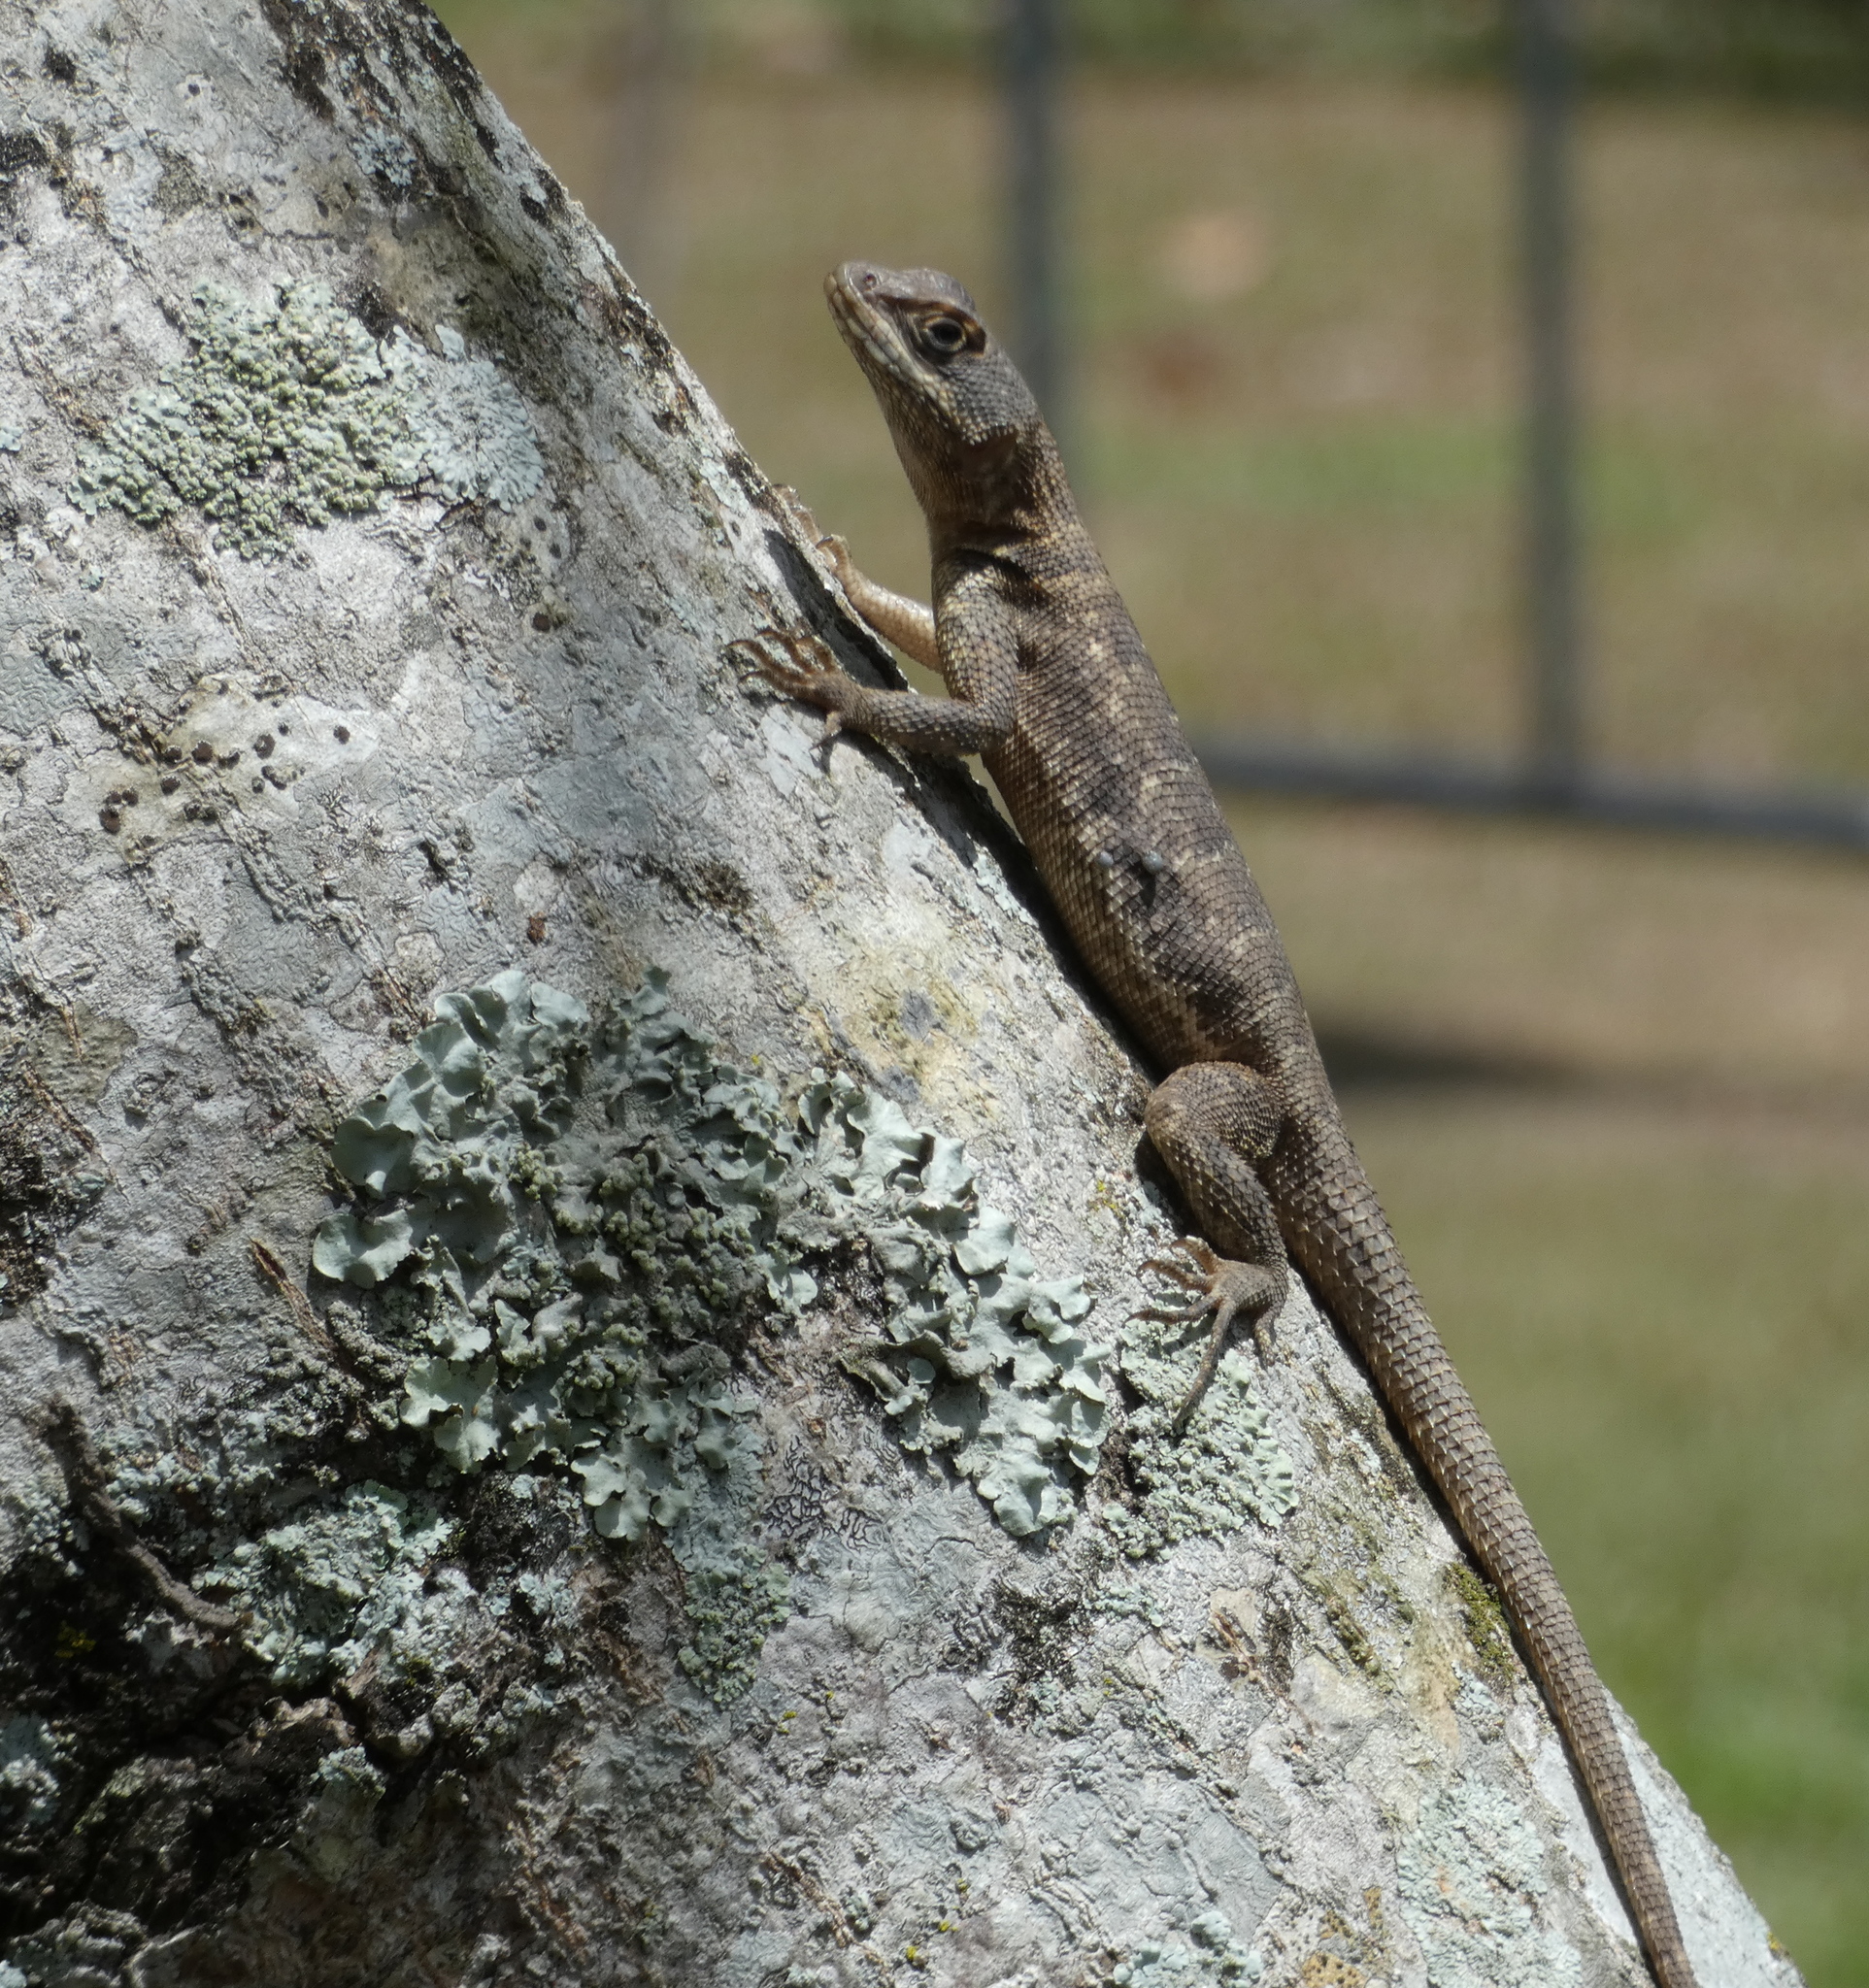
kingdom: Animalia
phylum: Chordata
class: Squamata
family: Tropiduridae
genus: Tropidurus
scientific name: Tropidurus hispidus
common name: Peters' lava lizard
